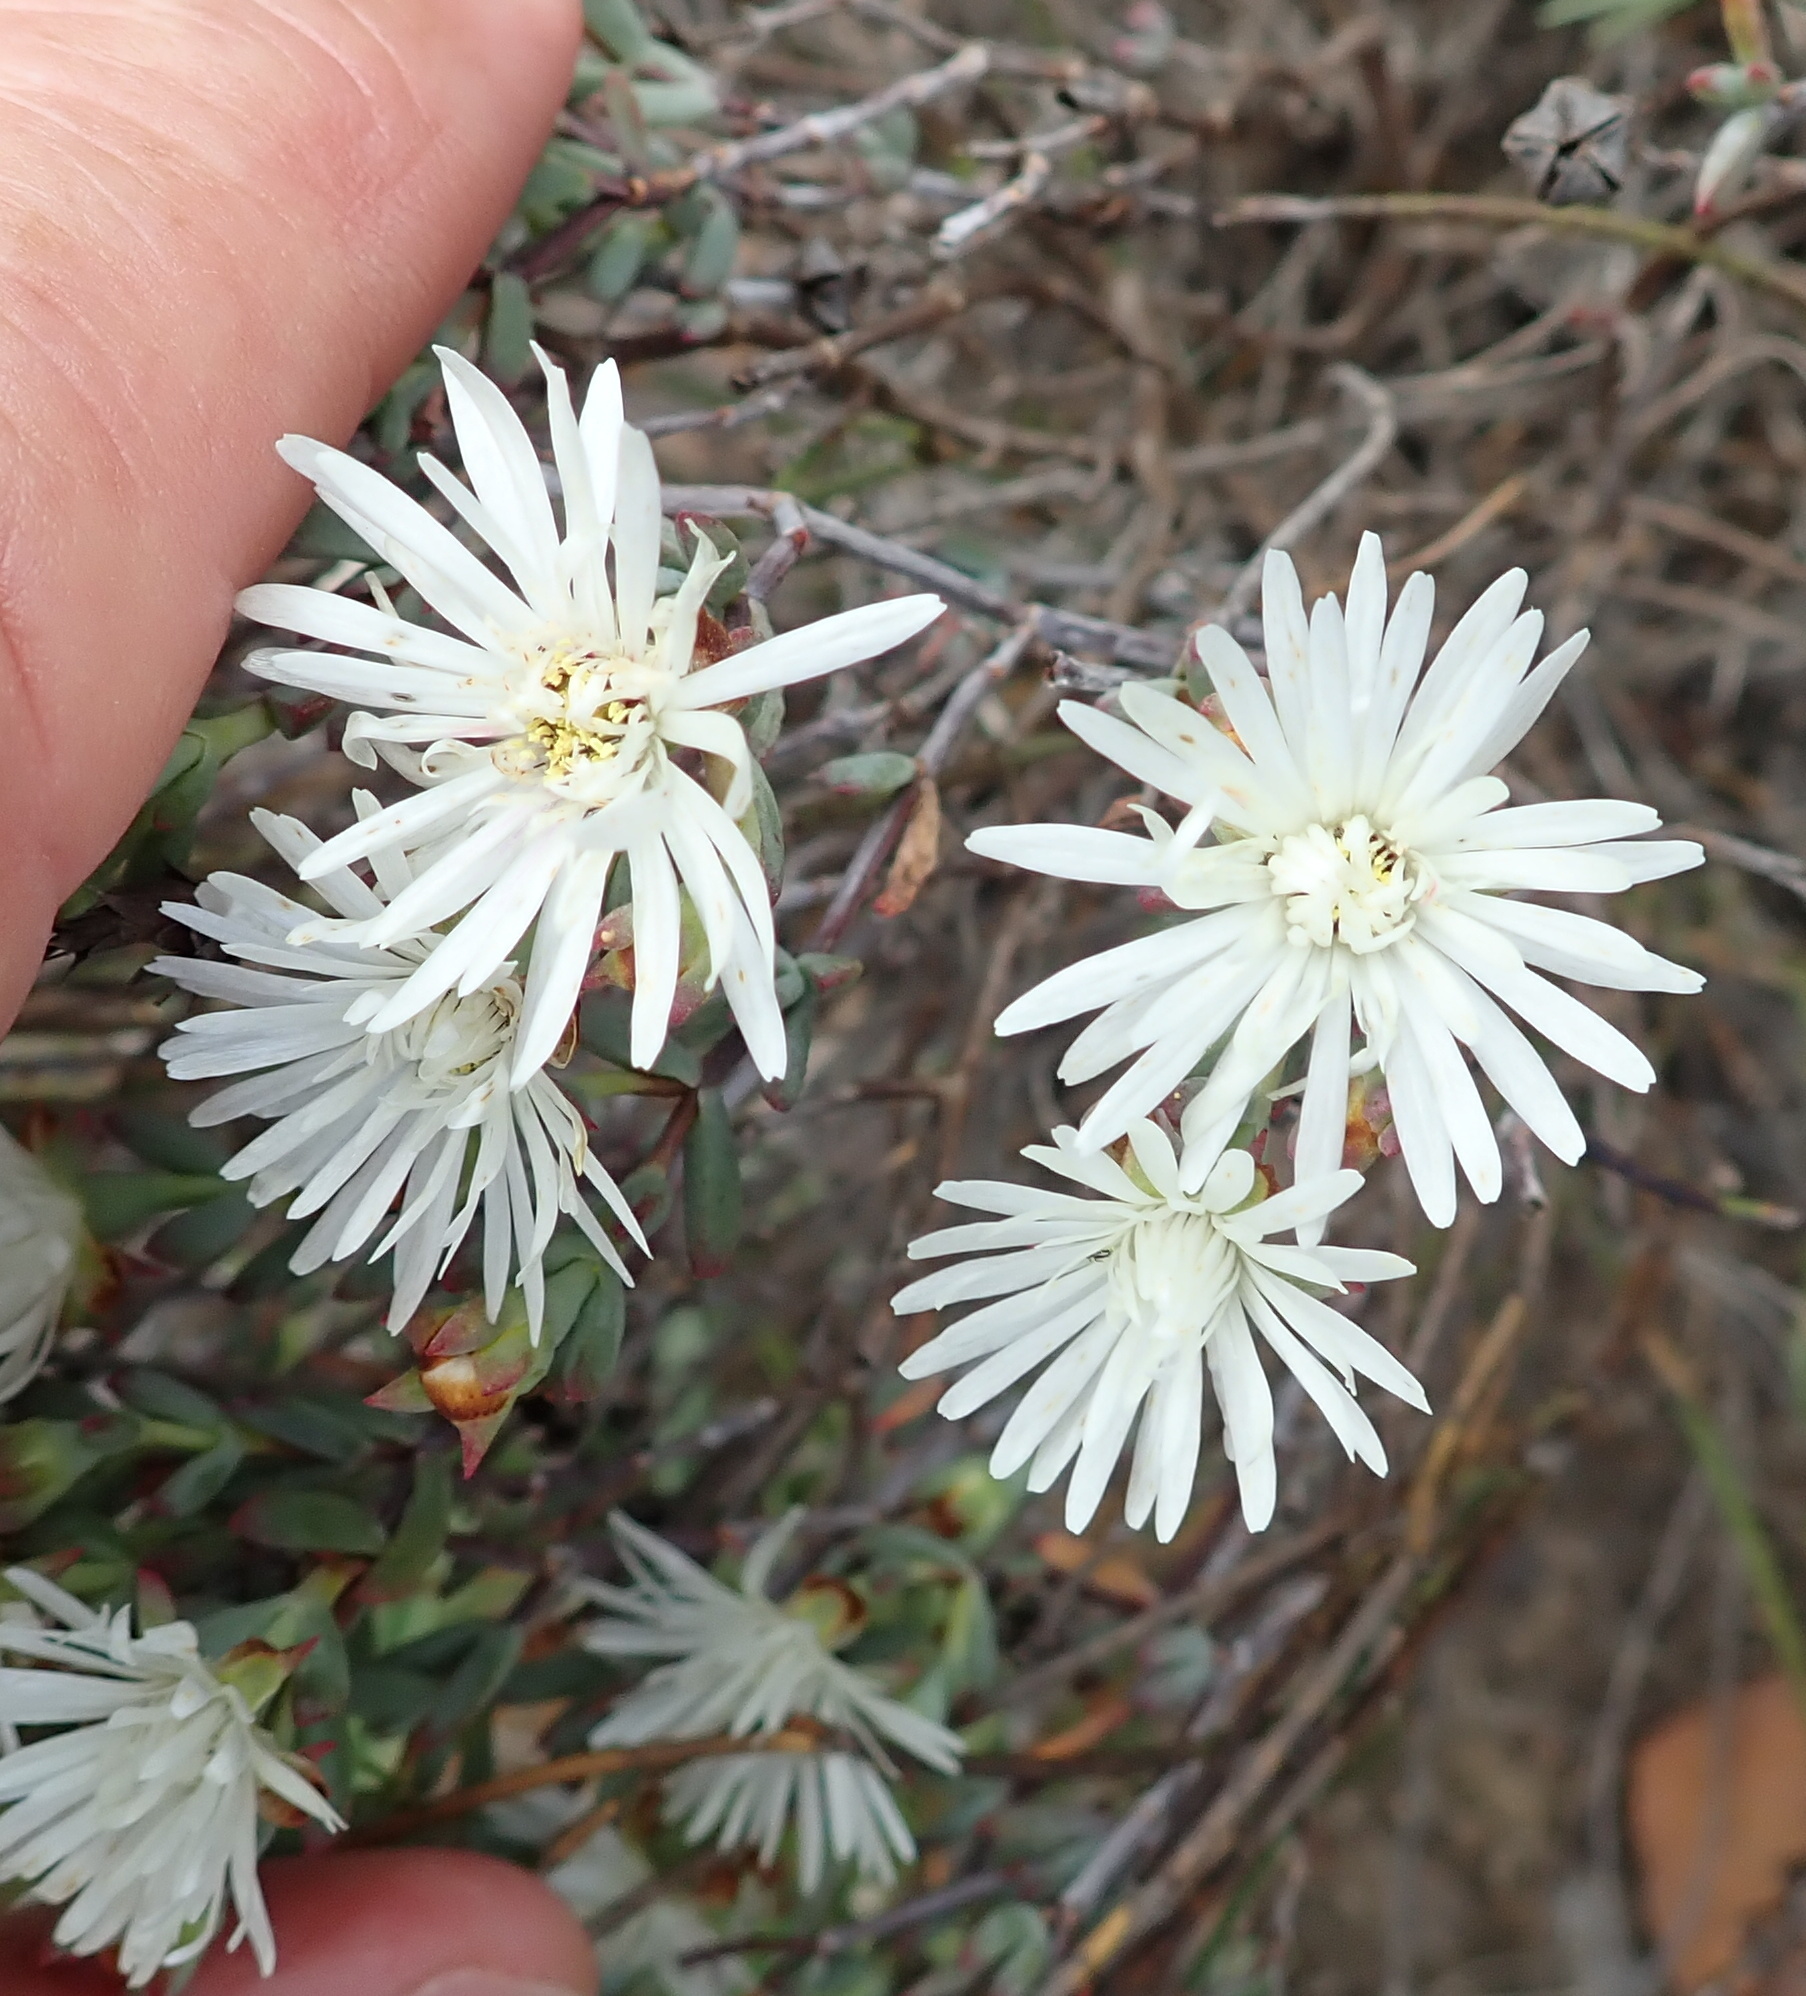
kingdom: Plantae
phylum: Tracheophyta
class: Magnoliopsida
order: Caryophyllales
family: Aizoaceae
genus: Lampranthus
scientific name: Lampranthus falcatus
